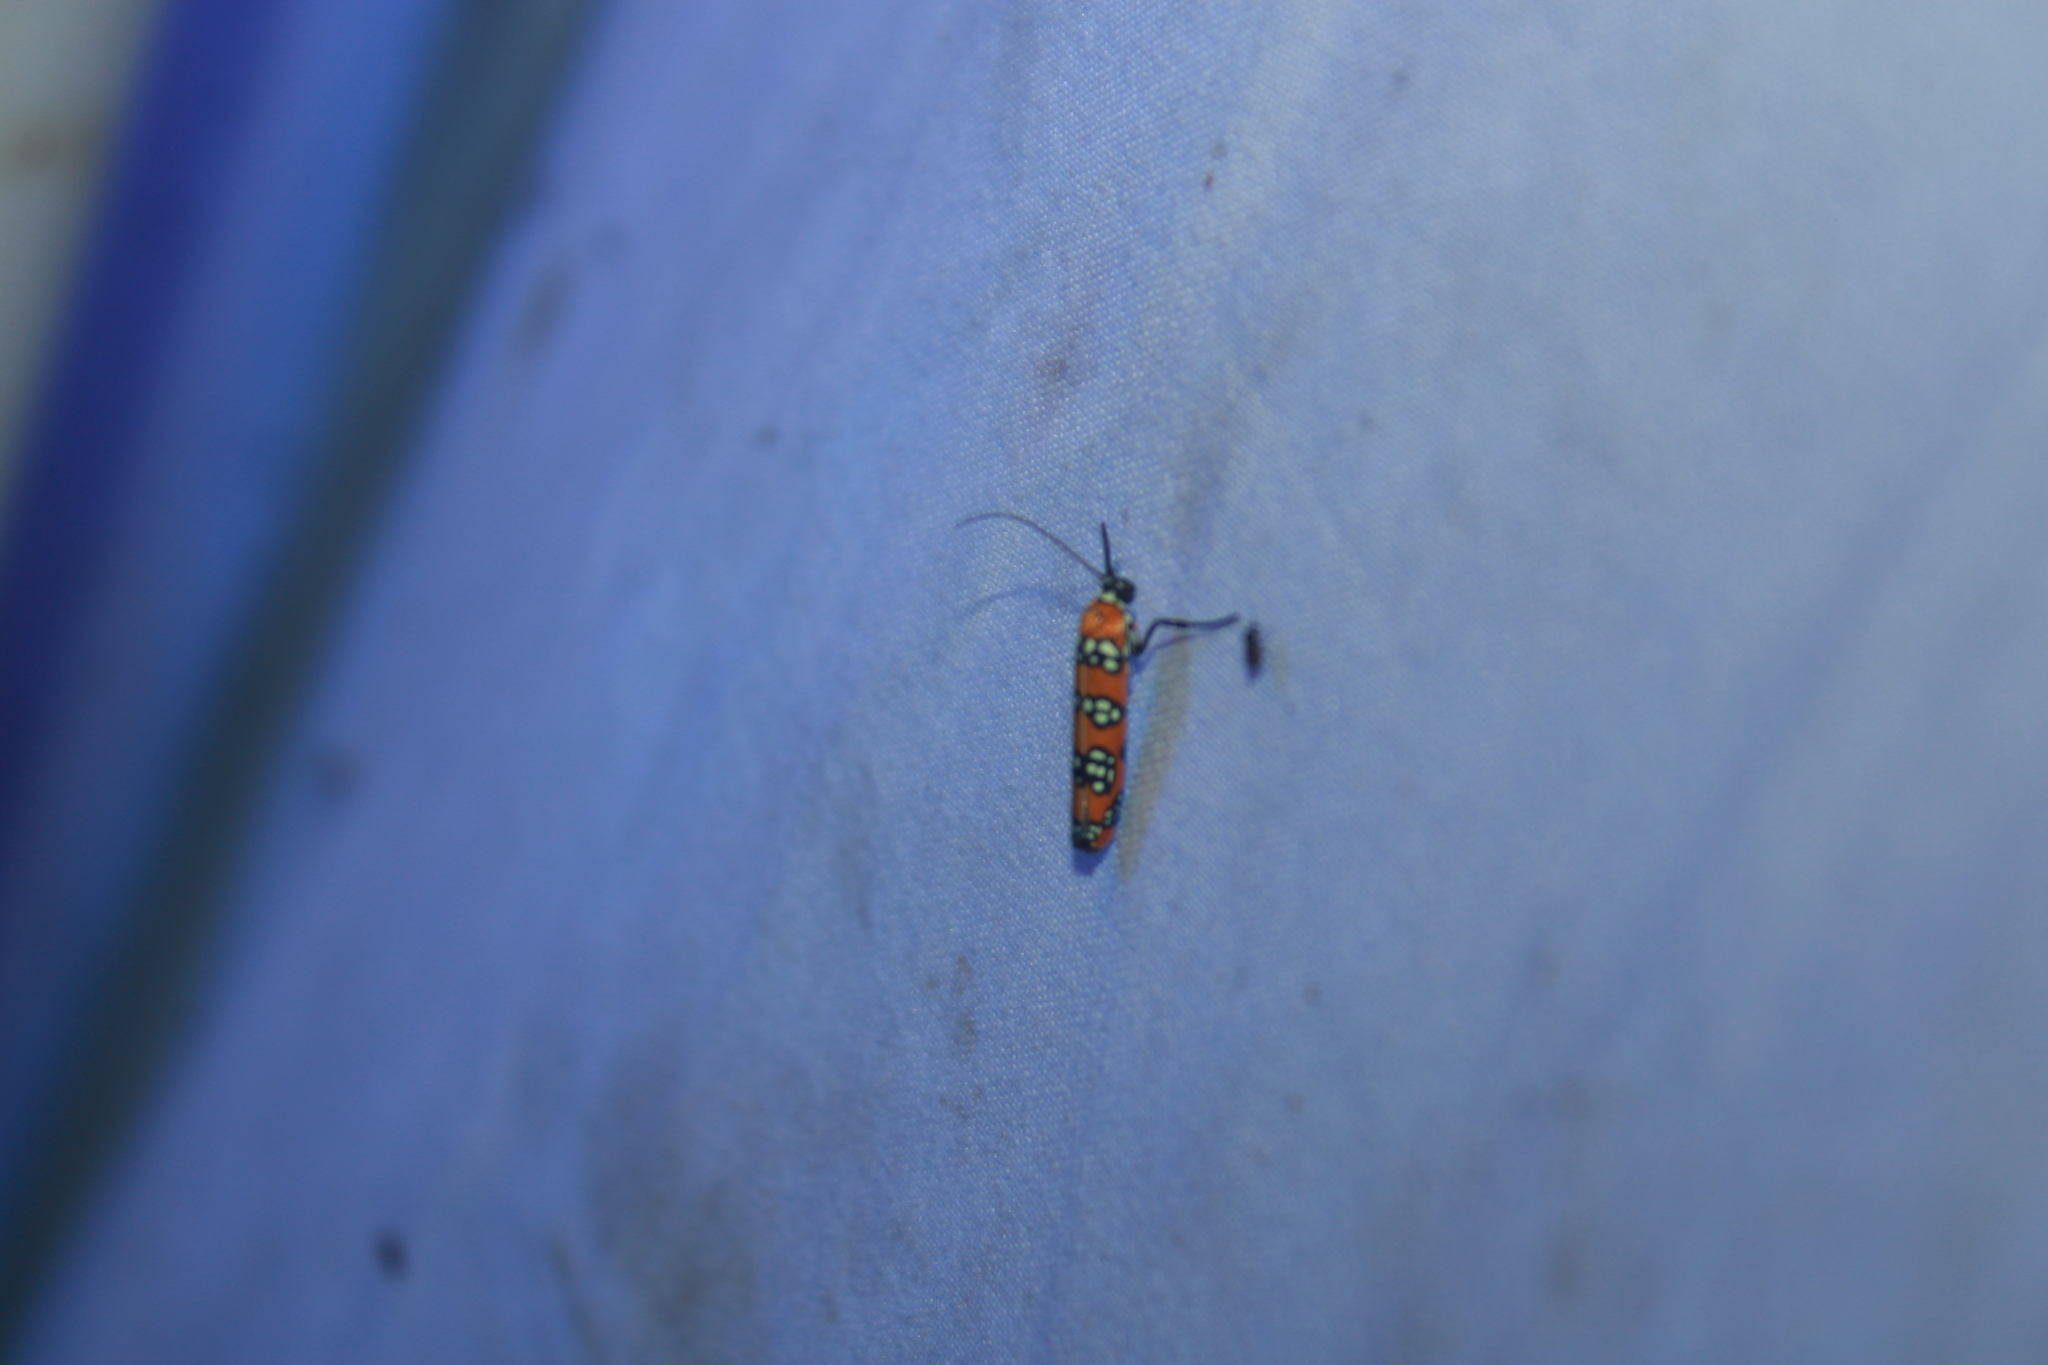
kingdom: Animalia
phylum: Arthropoda
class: Insecta
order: Lepidoptera
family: Attevidae
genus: Atteva
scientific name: Atteva punctella
